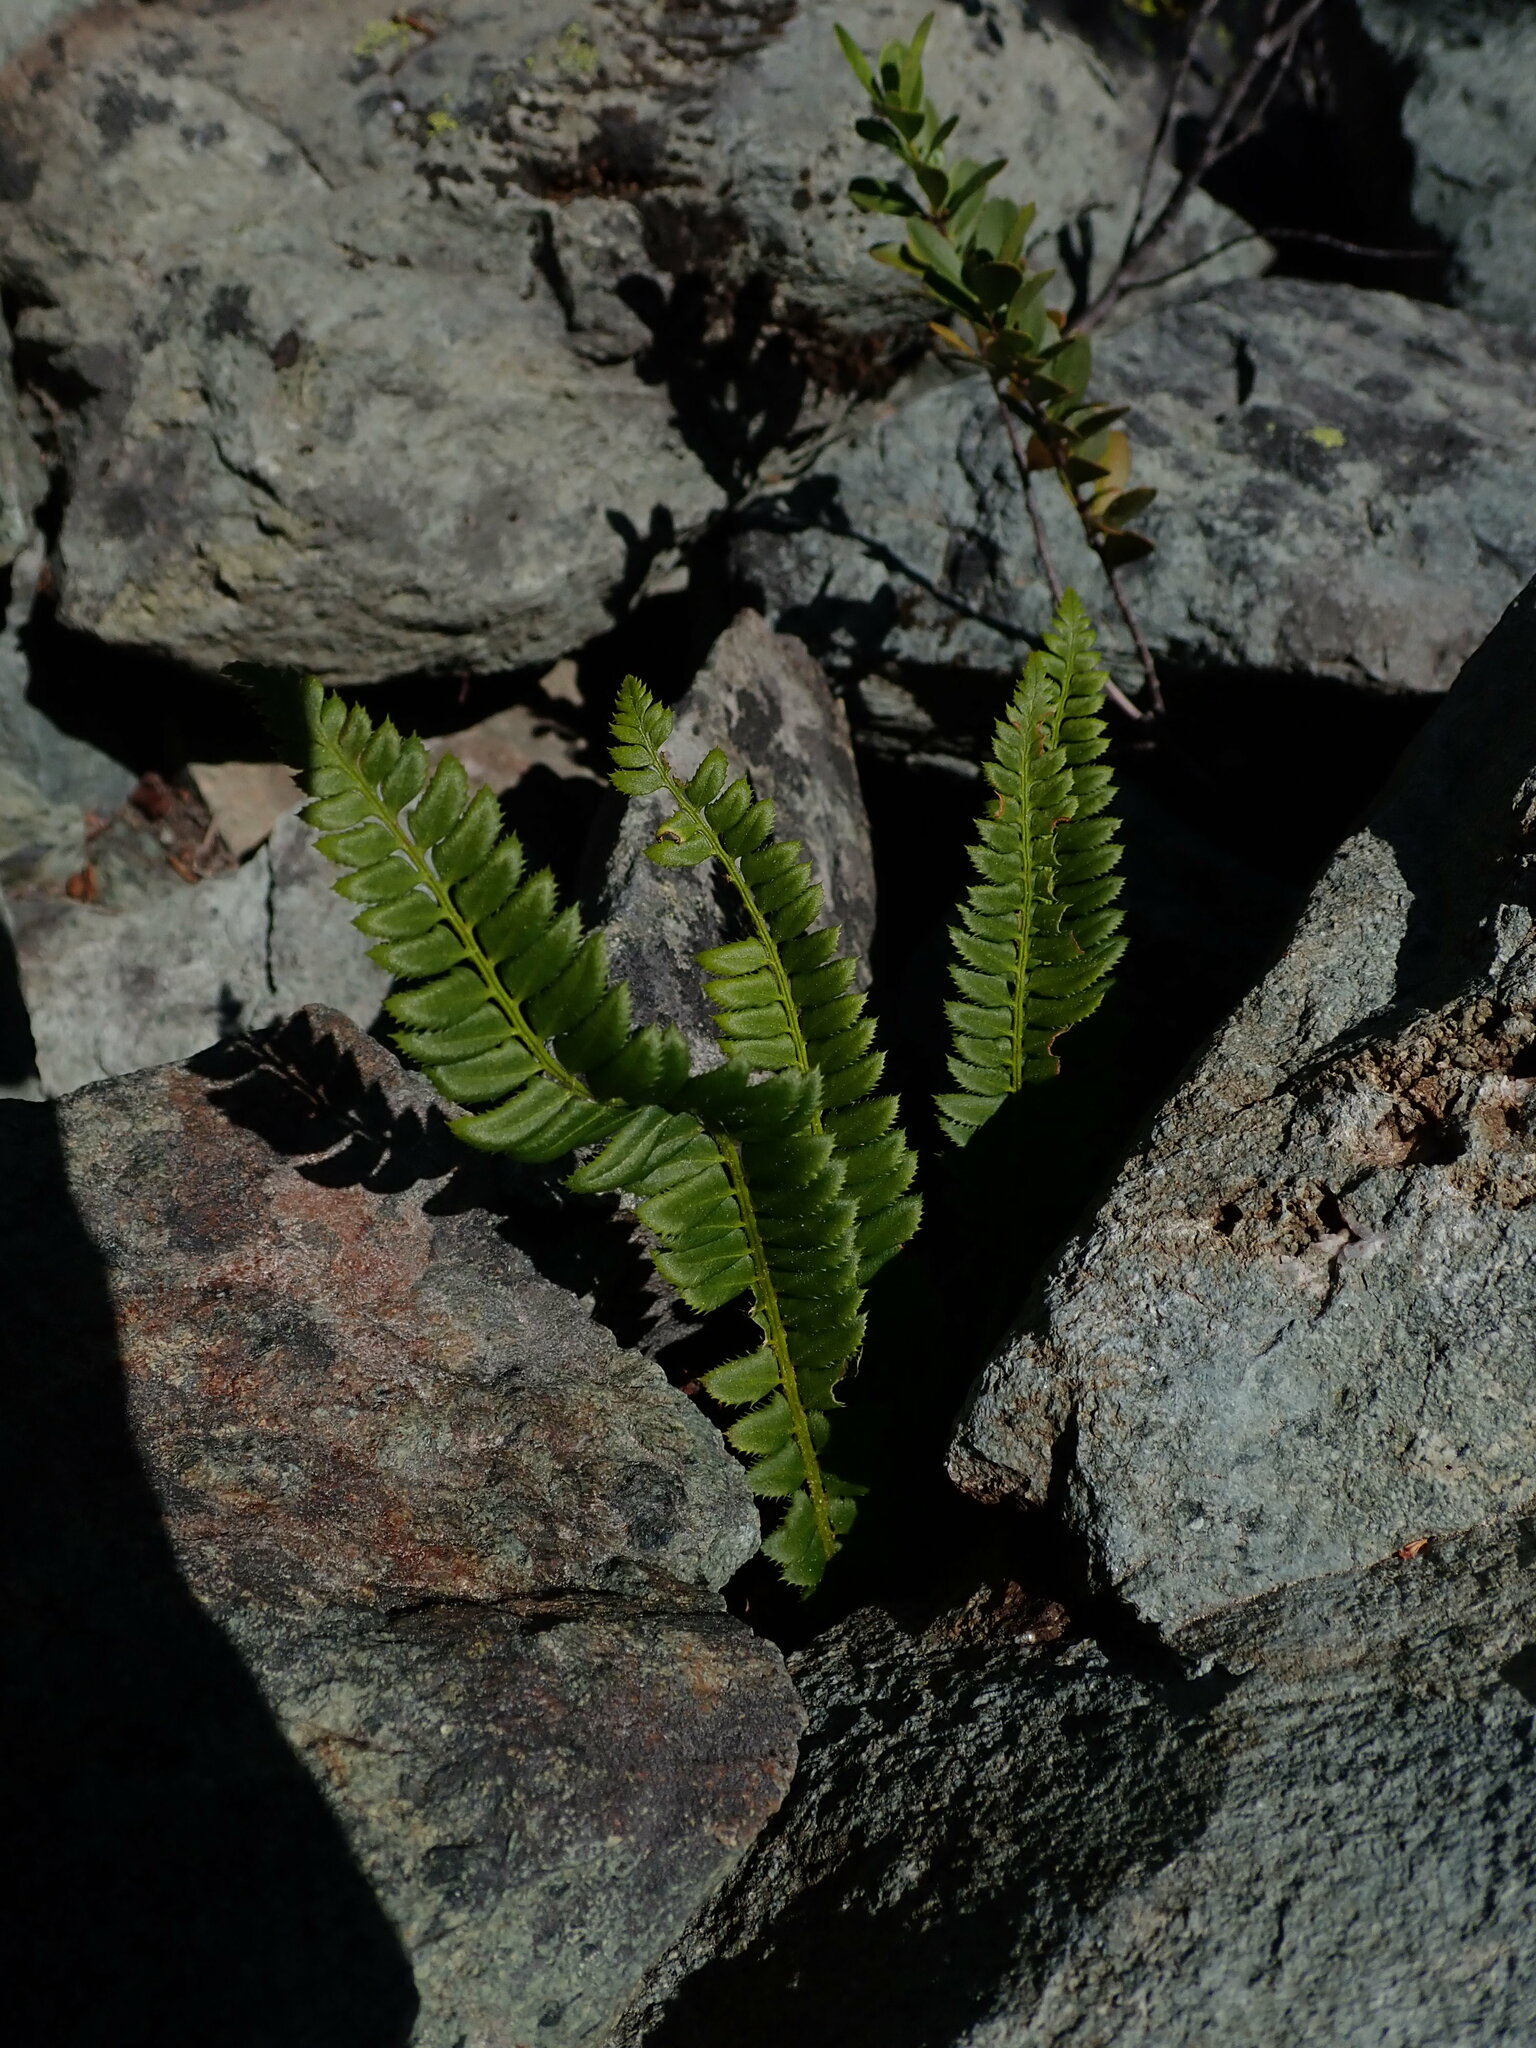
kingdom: Plantae
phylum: Tracheophyta
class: Polypodiopsida
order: Polypodiales
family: Dryopteridaceae
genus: Polystichum
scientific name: Polystichum lonchitis
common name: Holly fern
